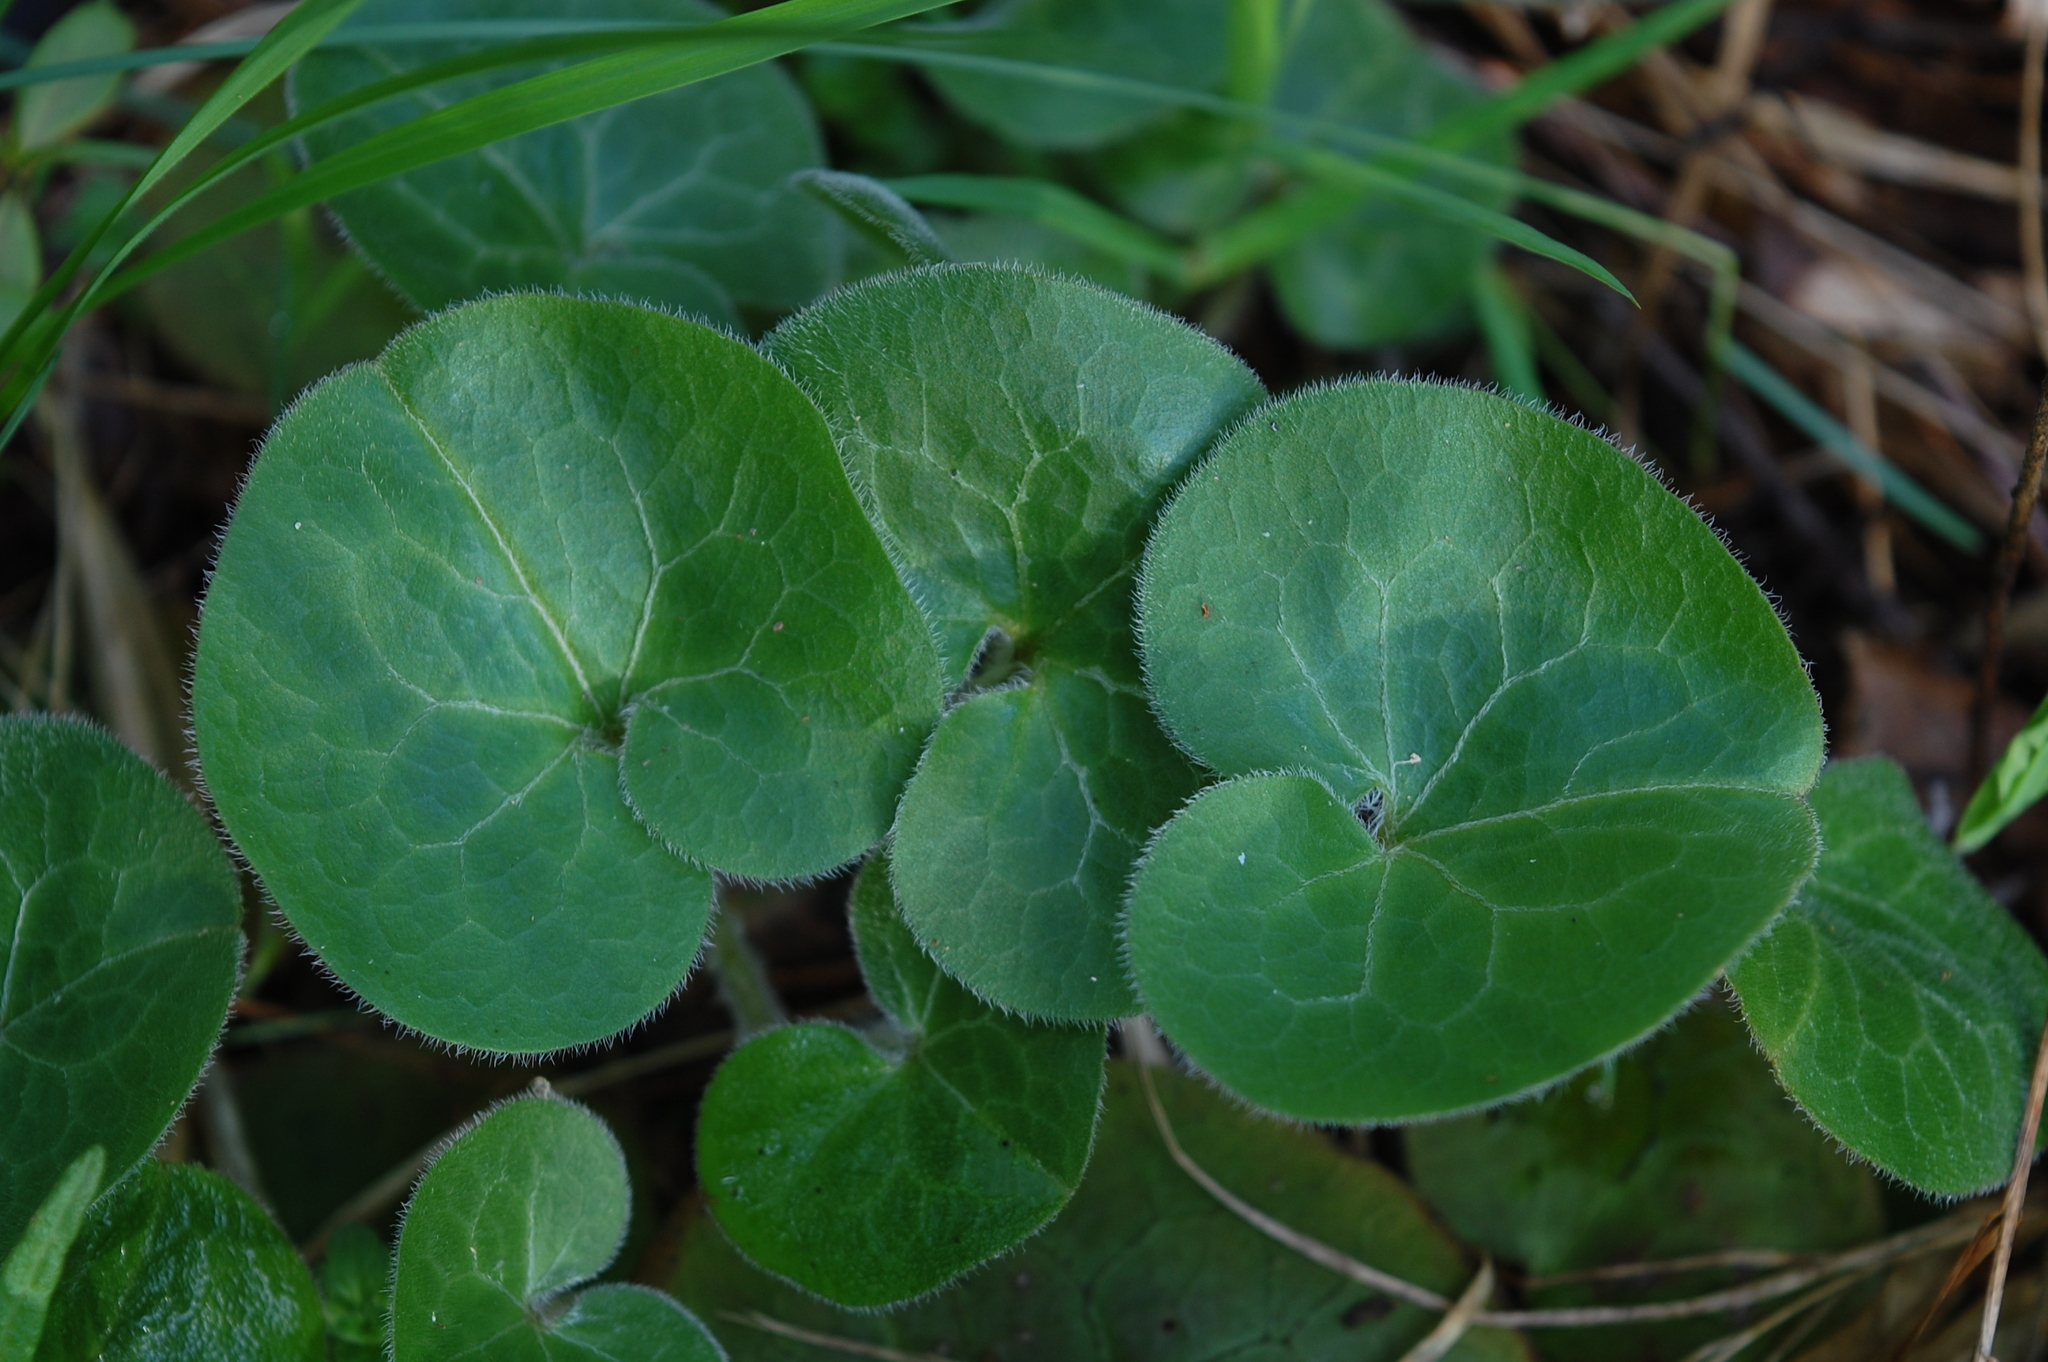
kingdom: Plantae
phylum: Tracheophyta
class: Magnoliopsida
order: Piperales
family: Aristolochiaceae
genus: Asarum
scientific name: Asarum europaeum
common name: Asarabacca
